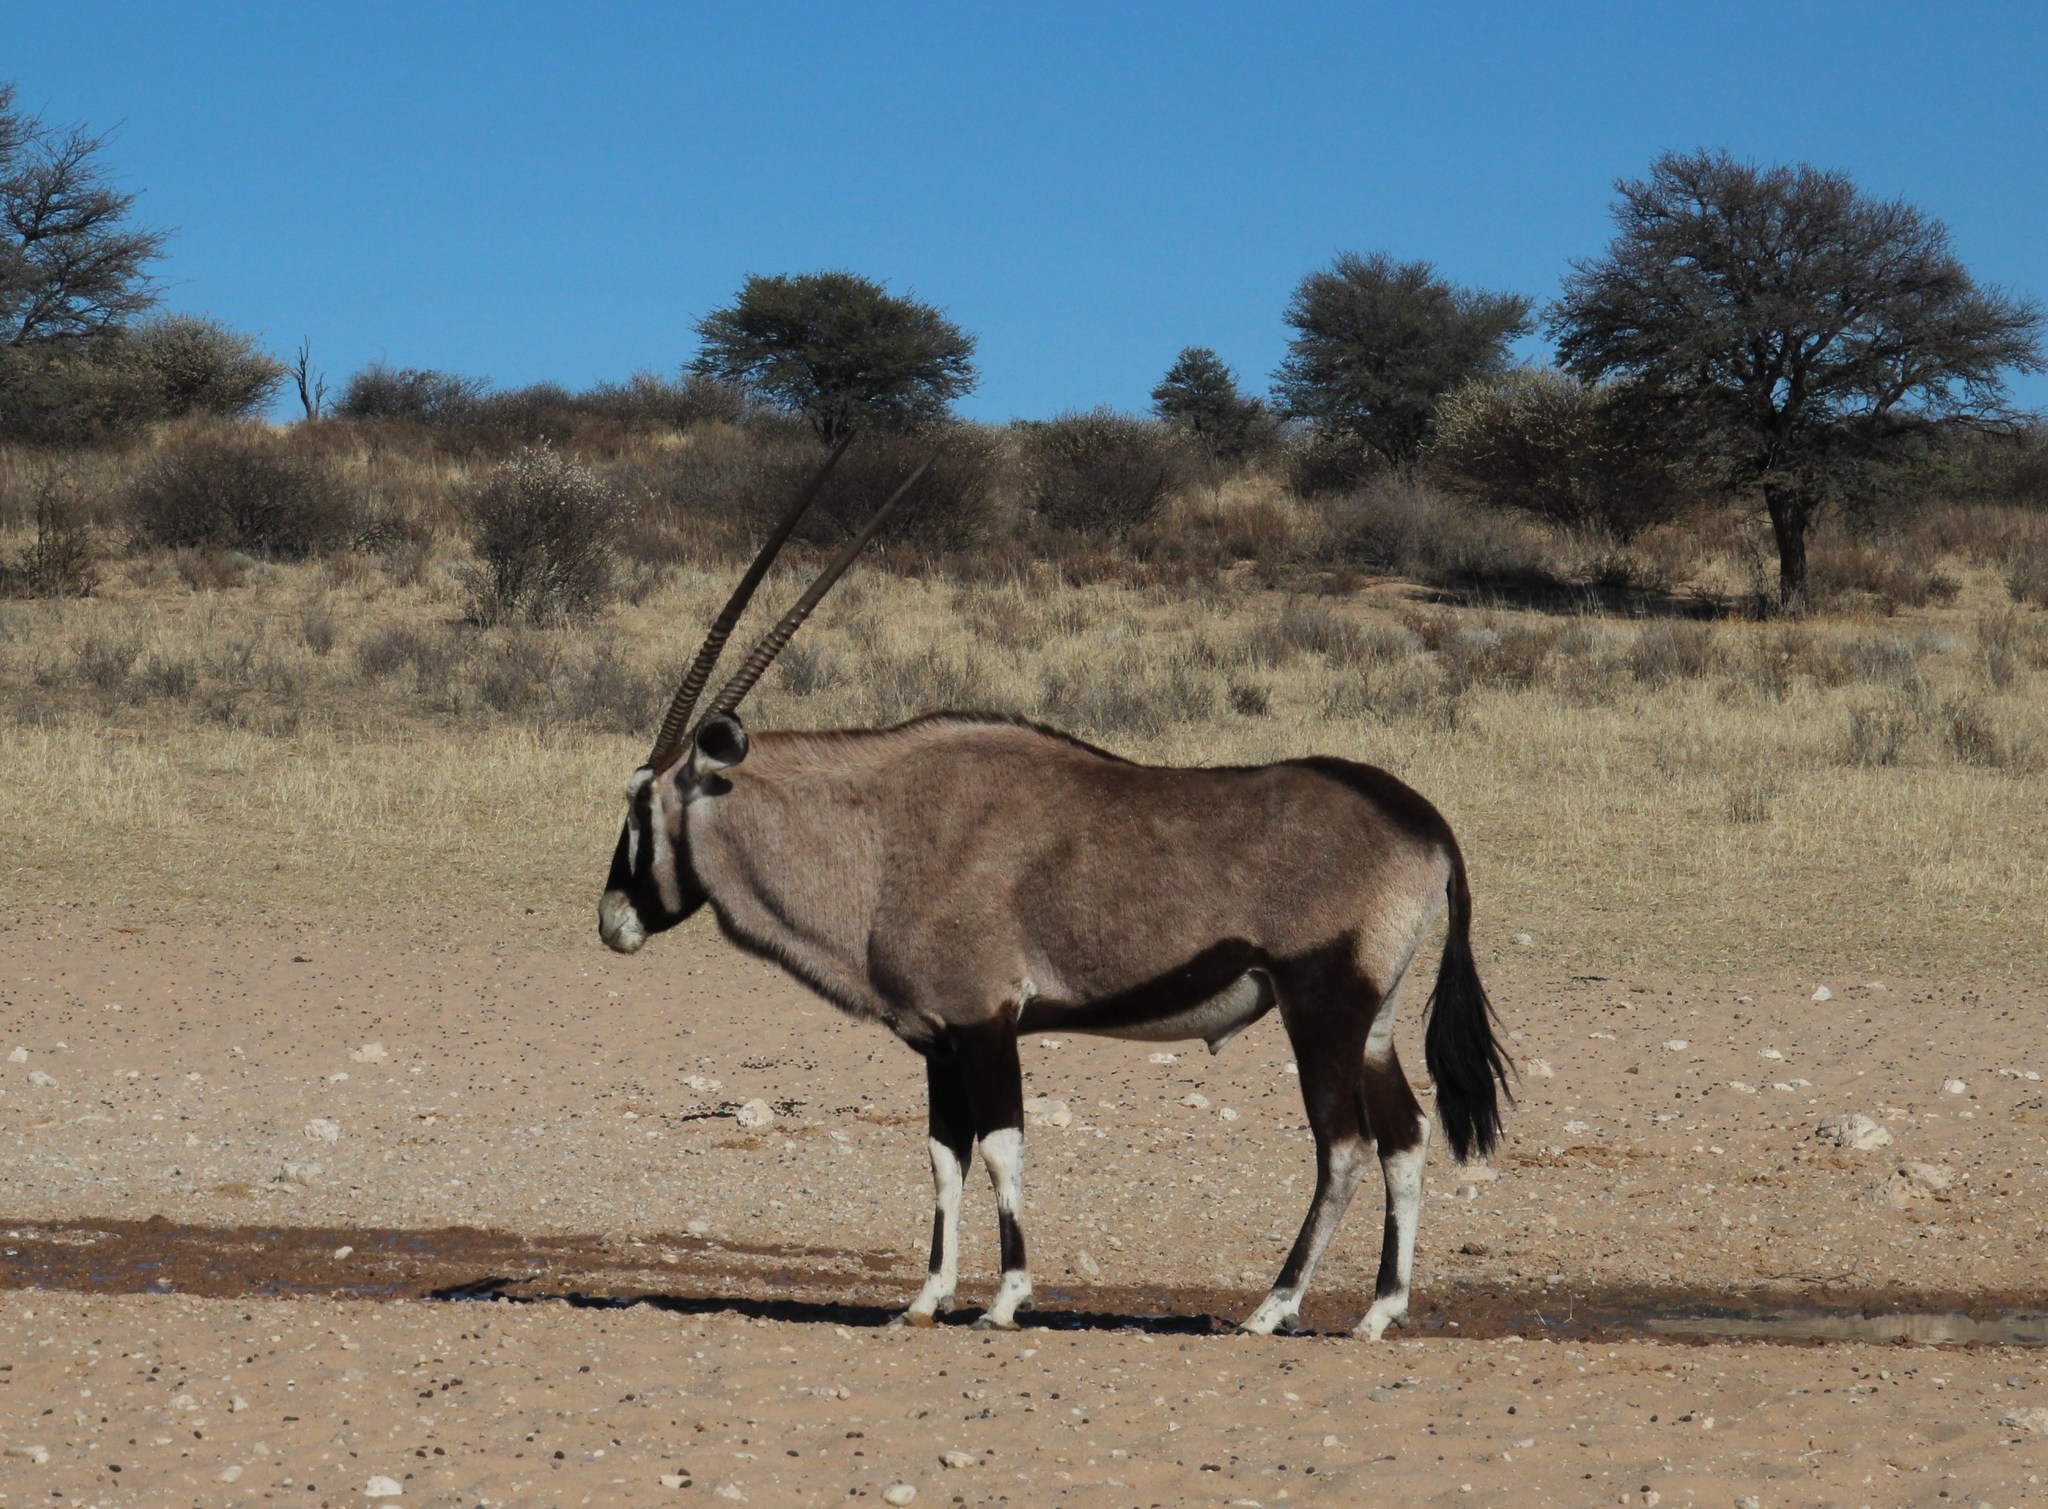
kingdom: Animalia
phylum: Chordata
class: Mammalia
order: Artiodactyla
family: Bovidae
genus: Oryx
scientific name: Oryx gazella
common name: Gemsbok
